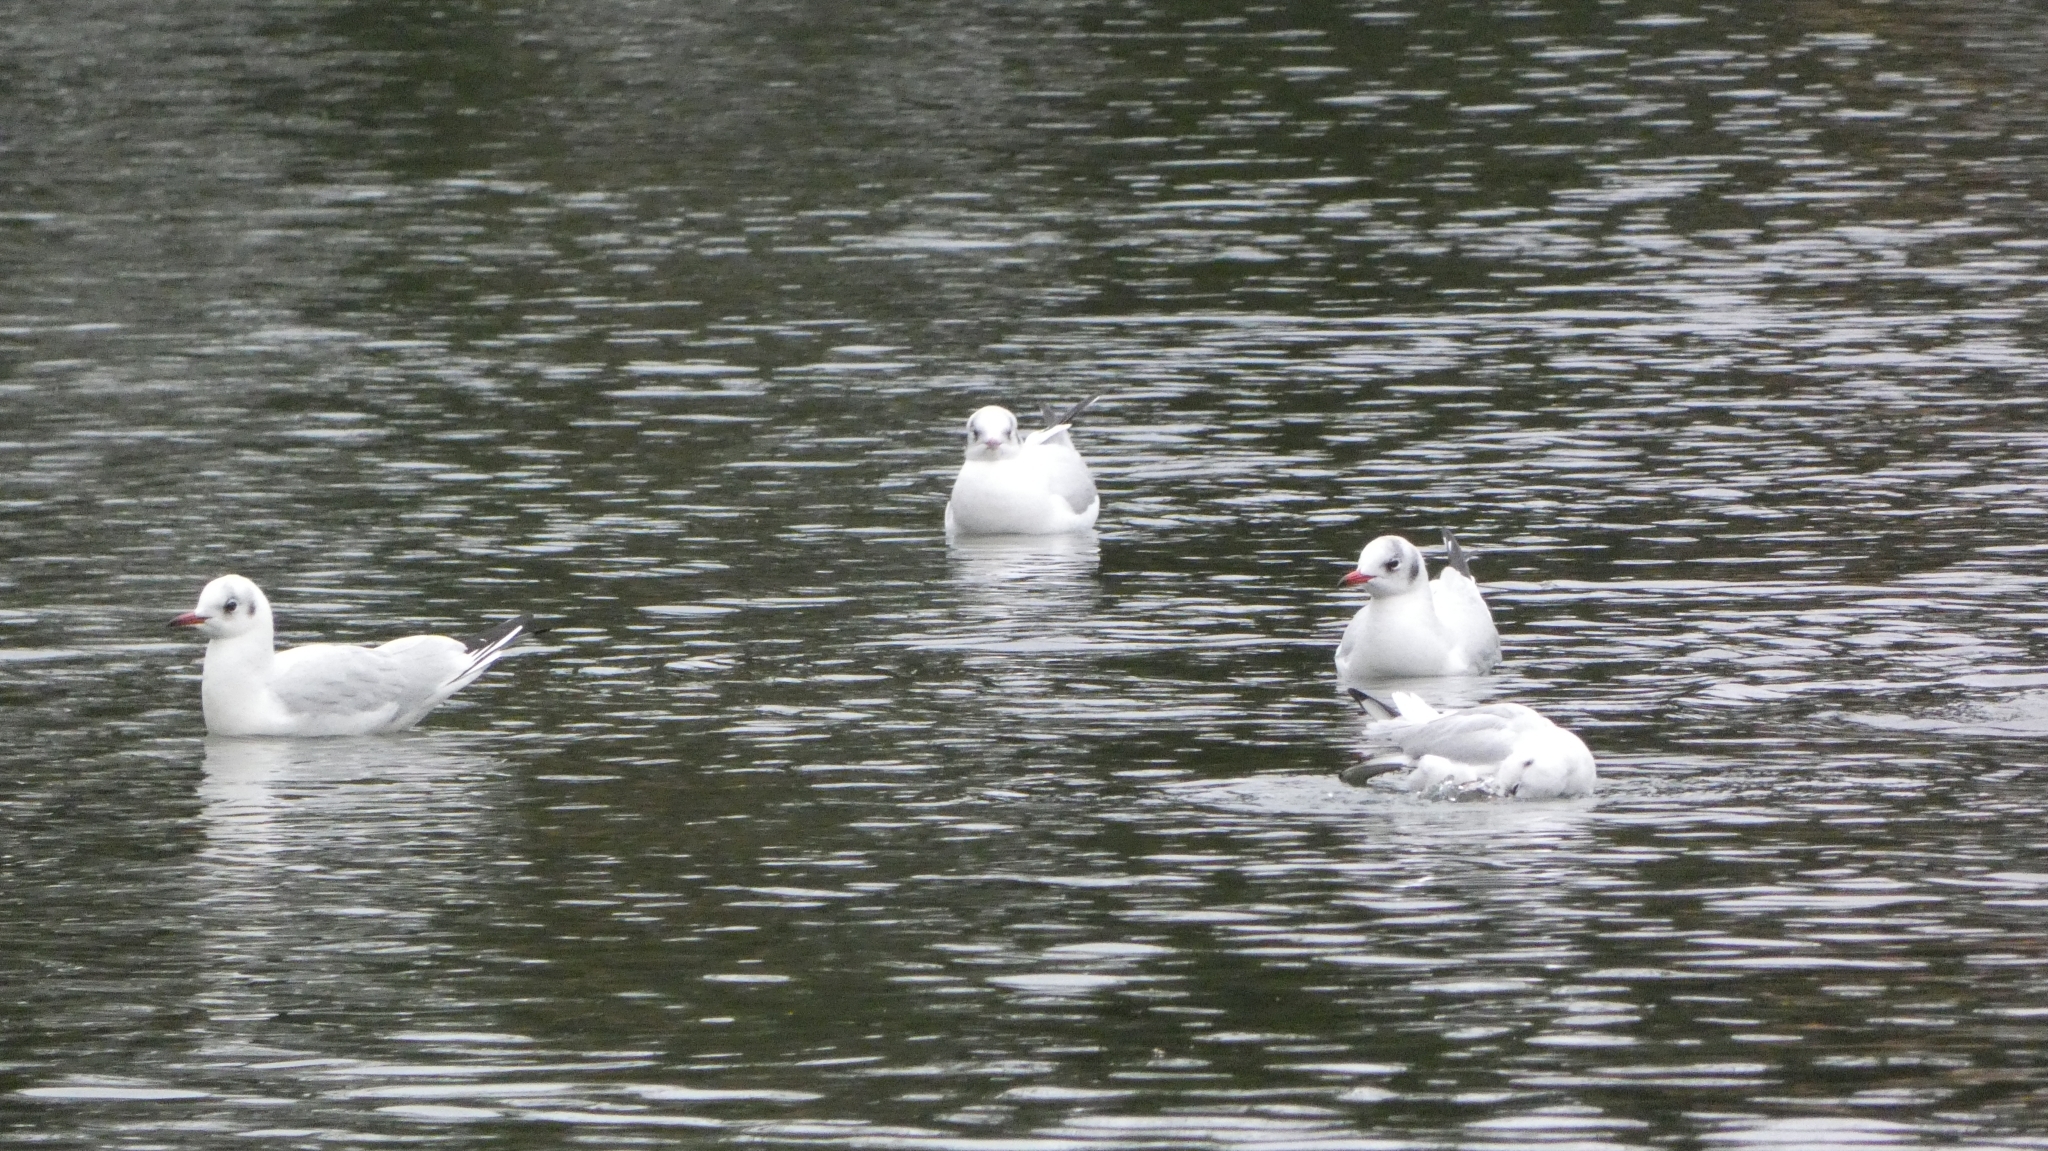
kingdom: Animalia
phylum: Chordata
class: Aves
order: Charadriiformes
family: Laridae
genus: Chroicocephalus
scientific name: Chroicocephalus ridibundus
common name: Black-headed gull
